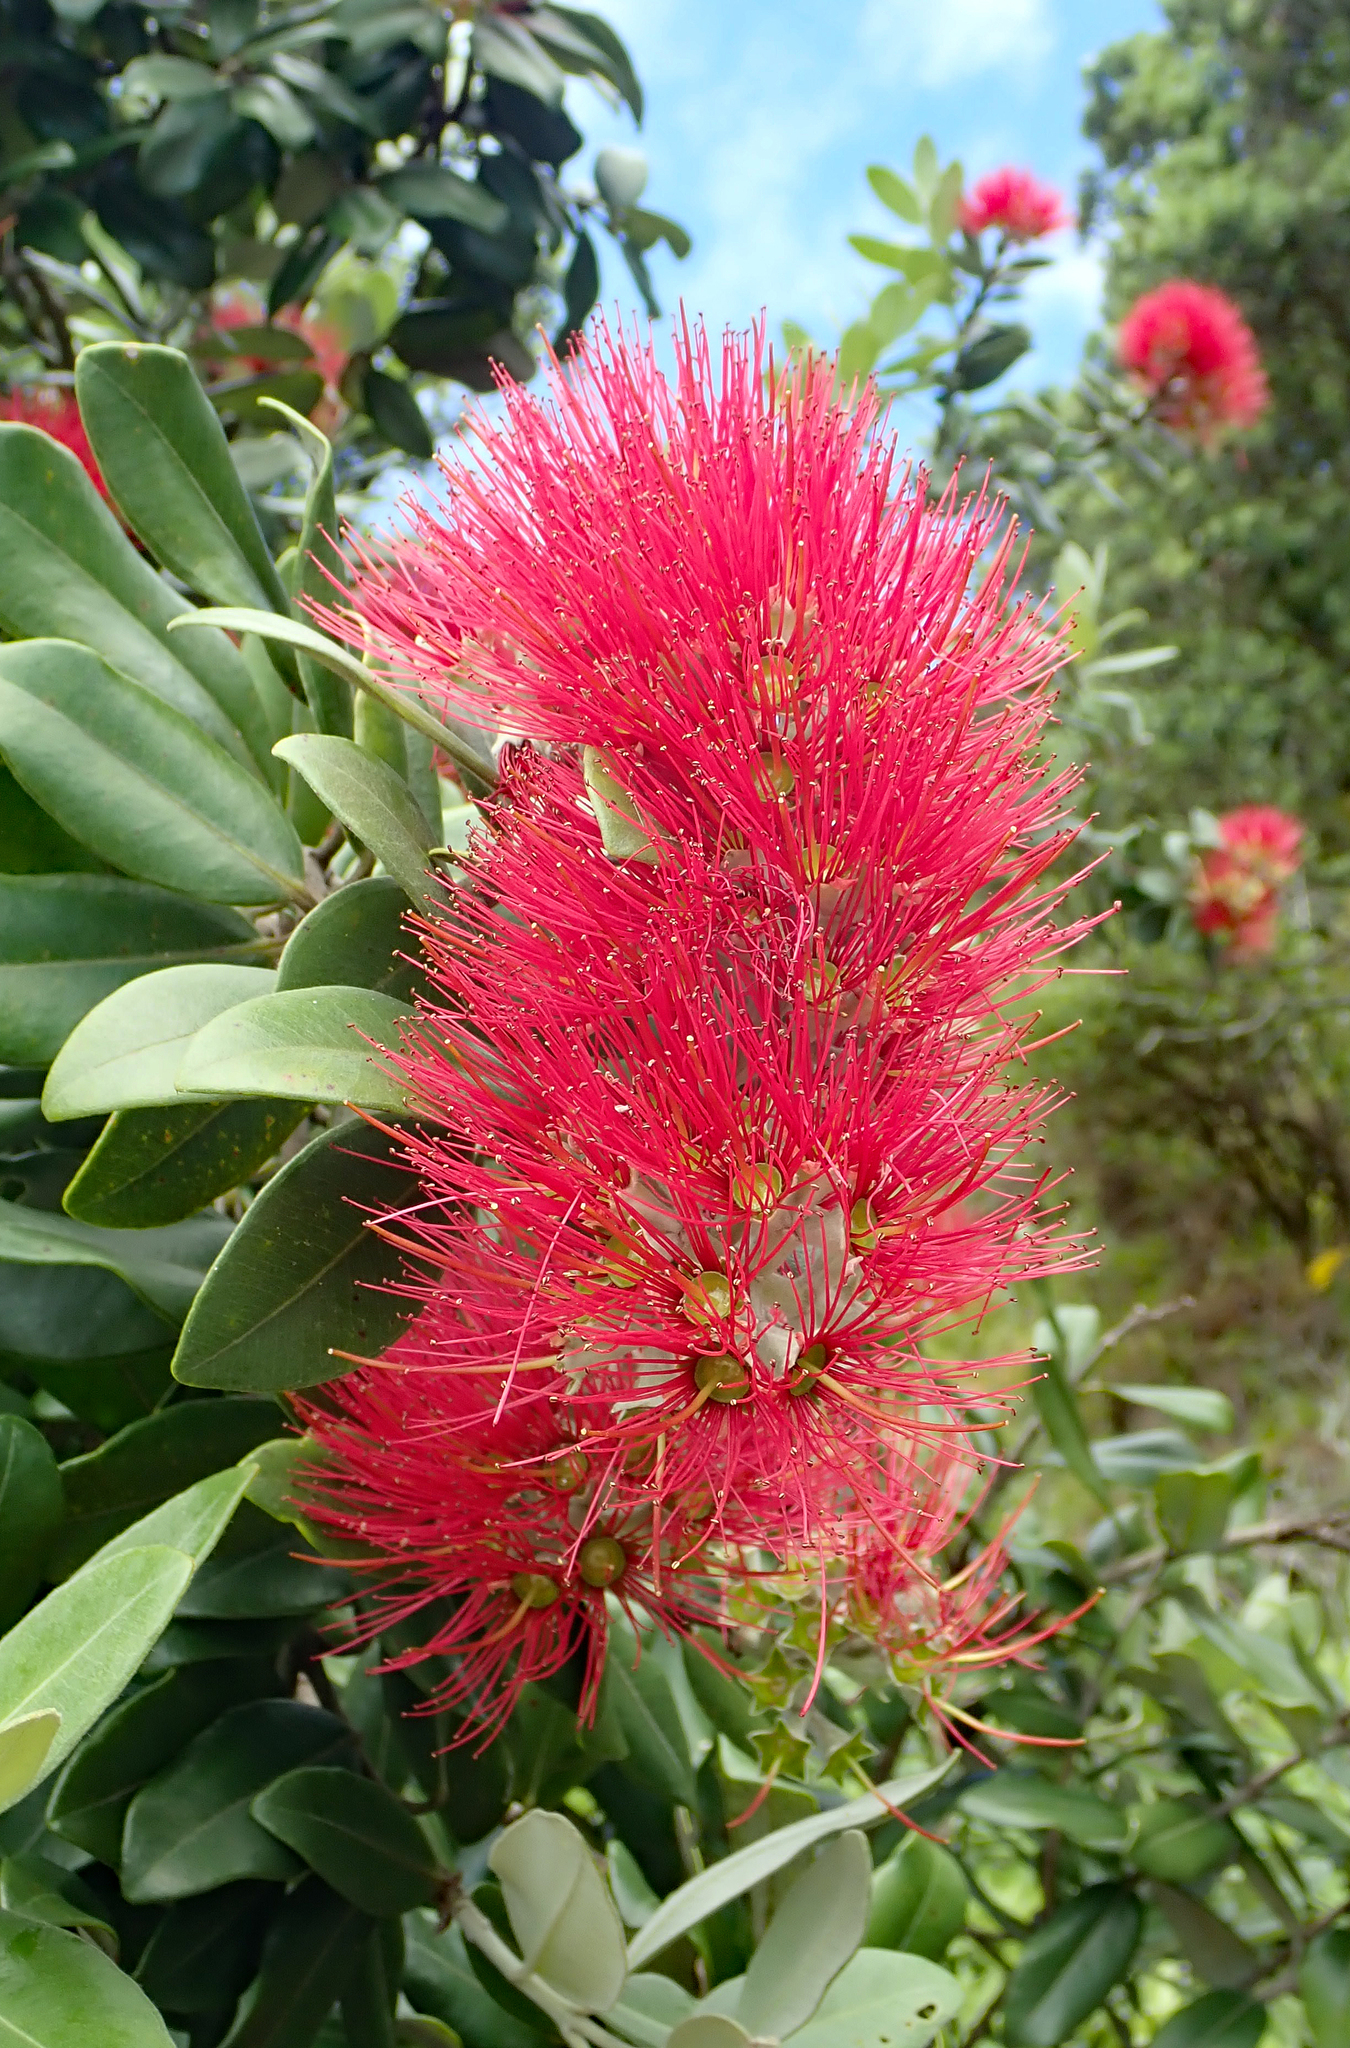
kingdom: Plantae
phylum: Tracheophyta
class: Magnoliopsida
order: Myrtales
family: Myrtaceae
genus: Metrosideros
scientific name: Metrosideros excelsa
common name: New zealand christmastree
